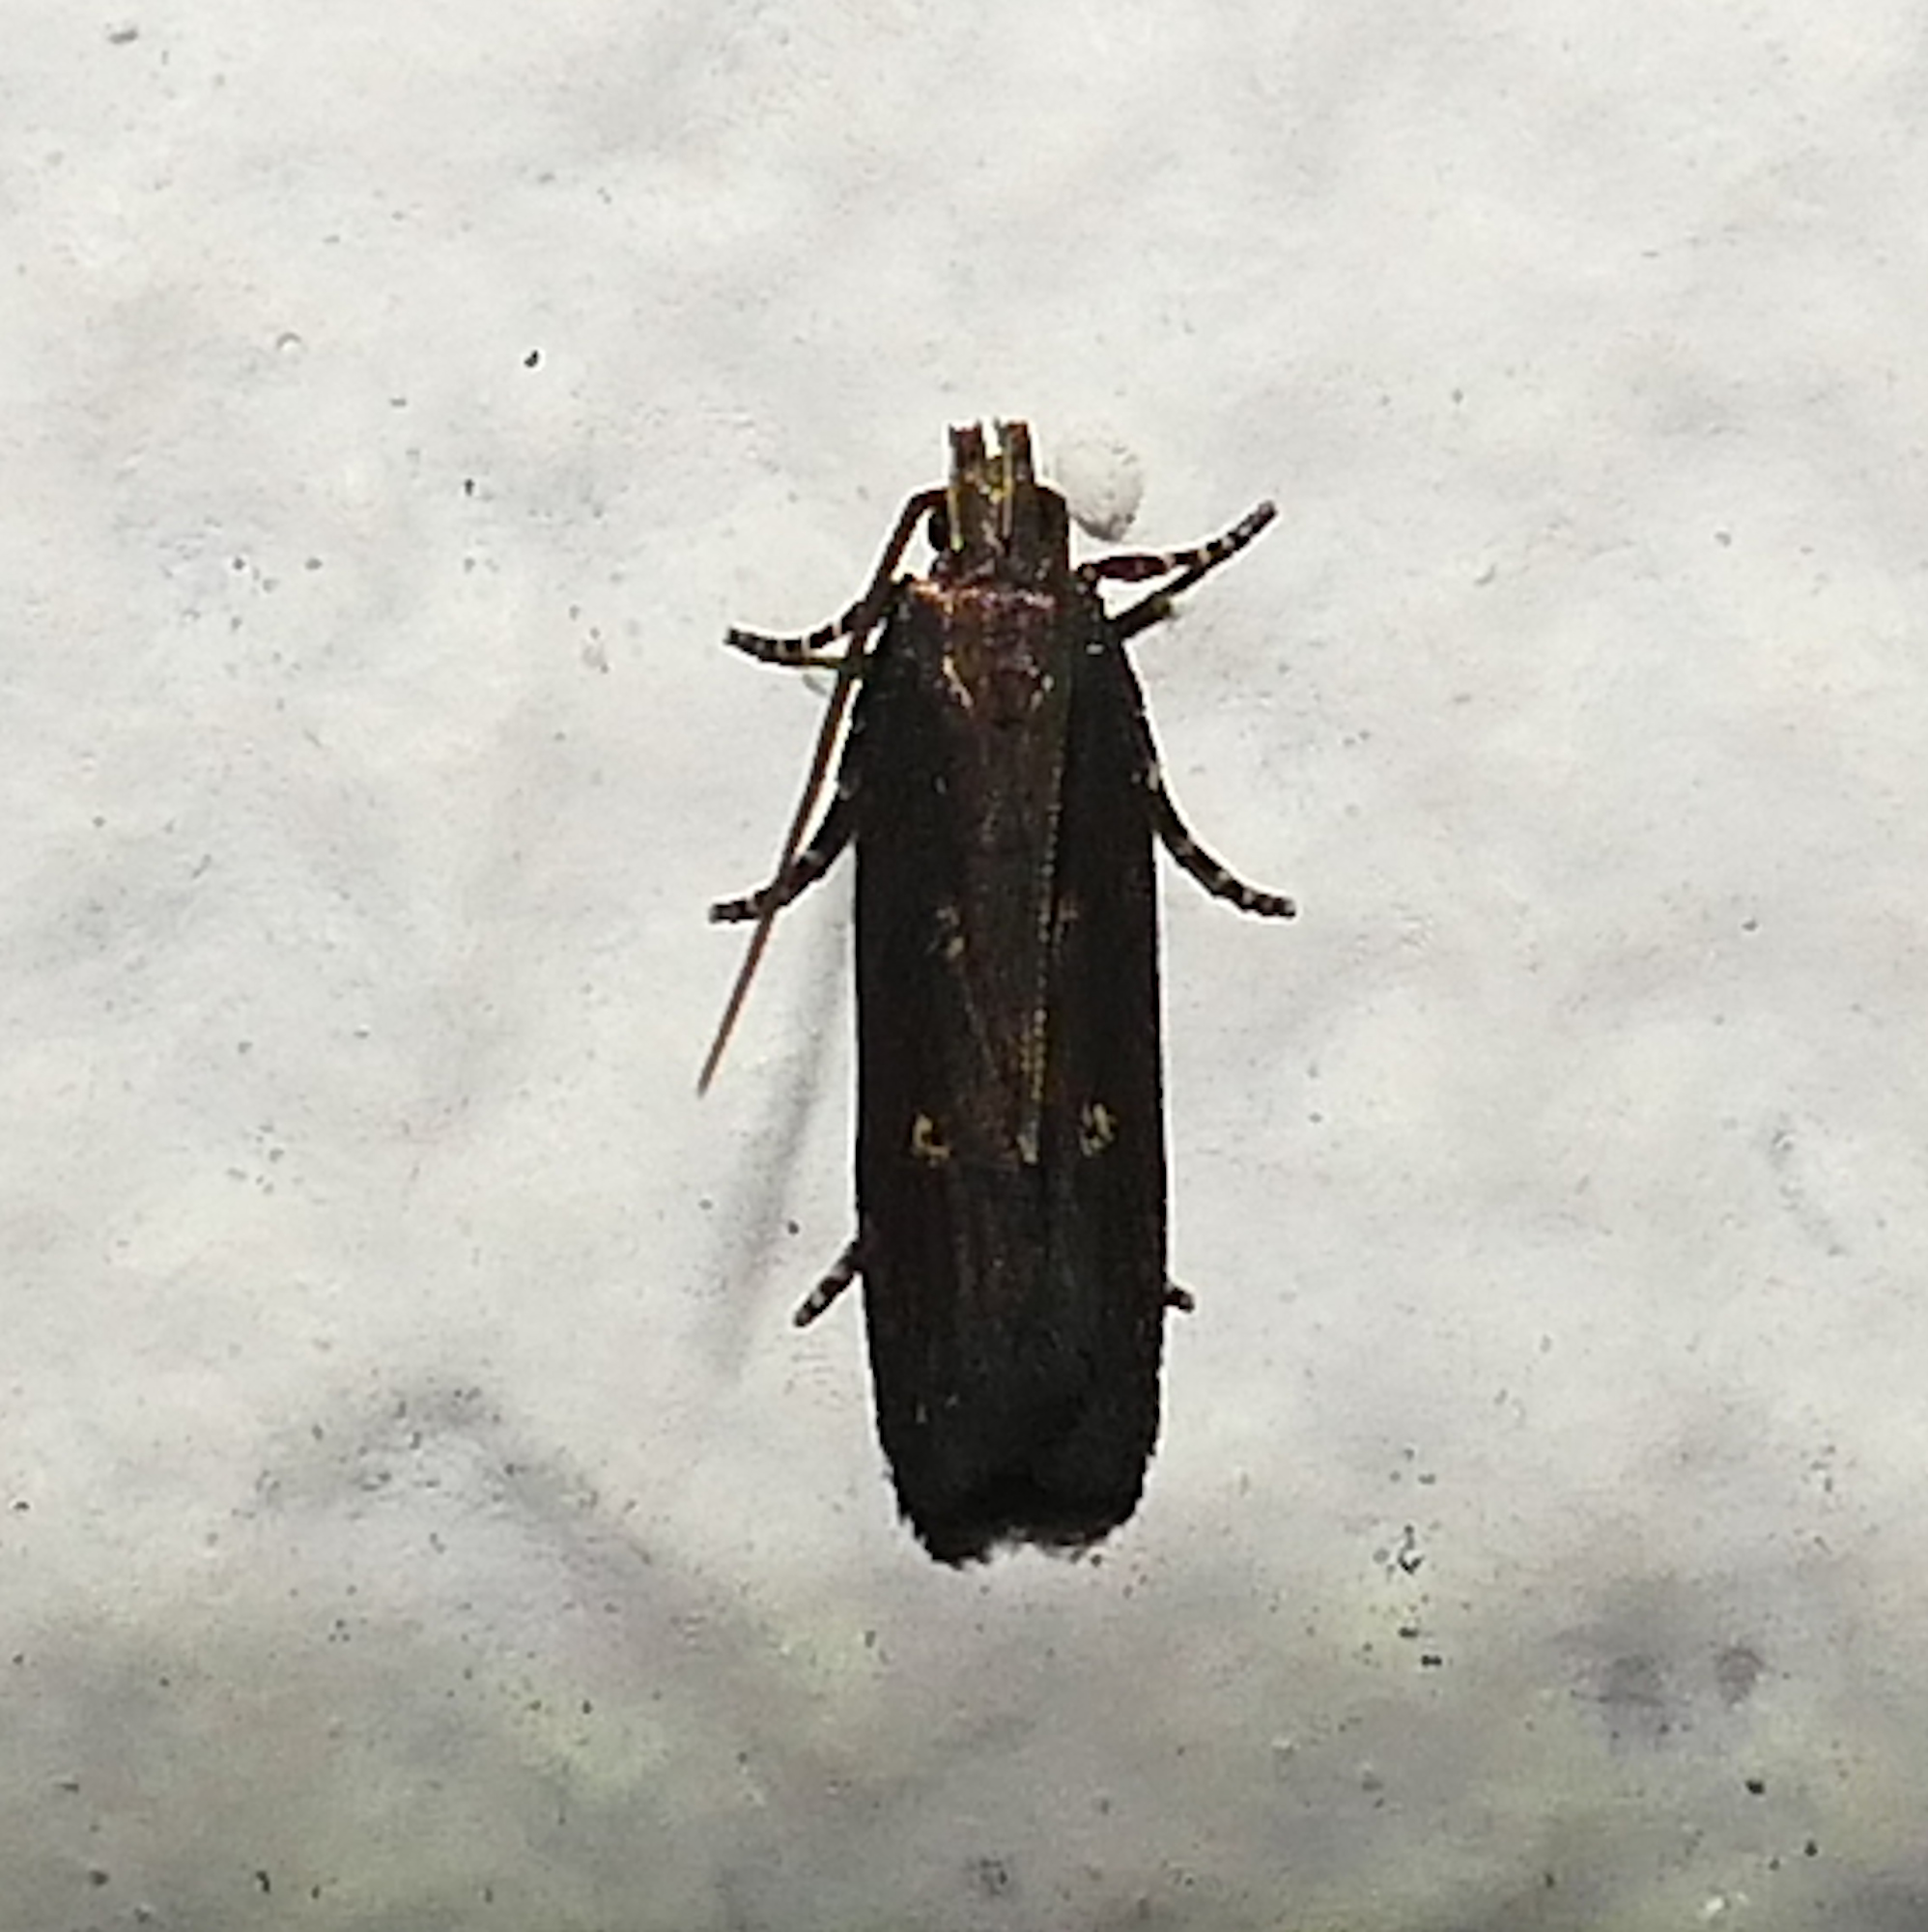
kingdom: Animalia
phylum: Arthropoda
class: Insecta
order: Lepidoptera
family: Gelechiidae
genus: Chionodes
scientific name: Chionodes discoocellella
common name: Eye-ringed chionodes moth
